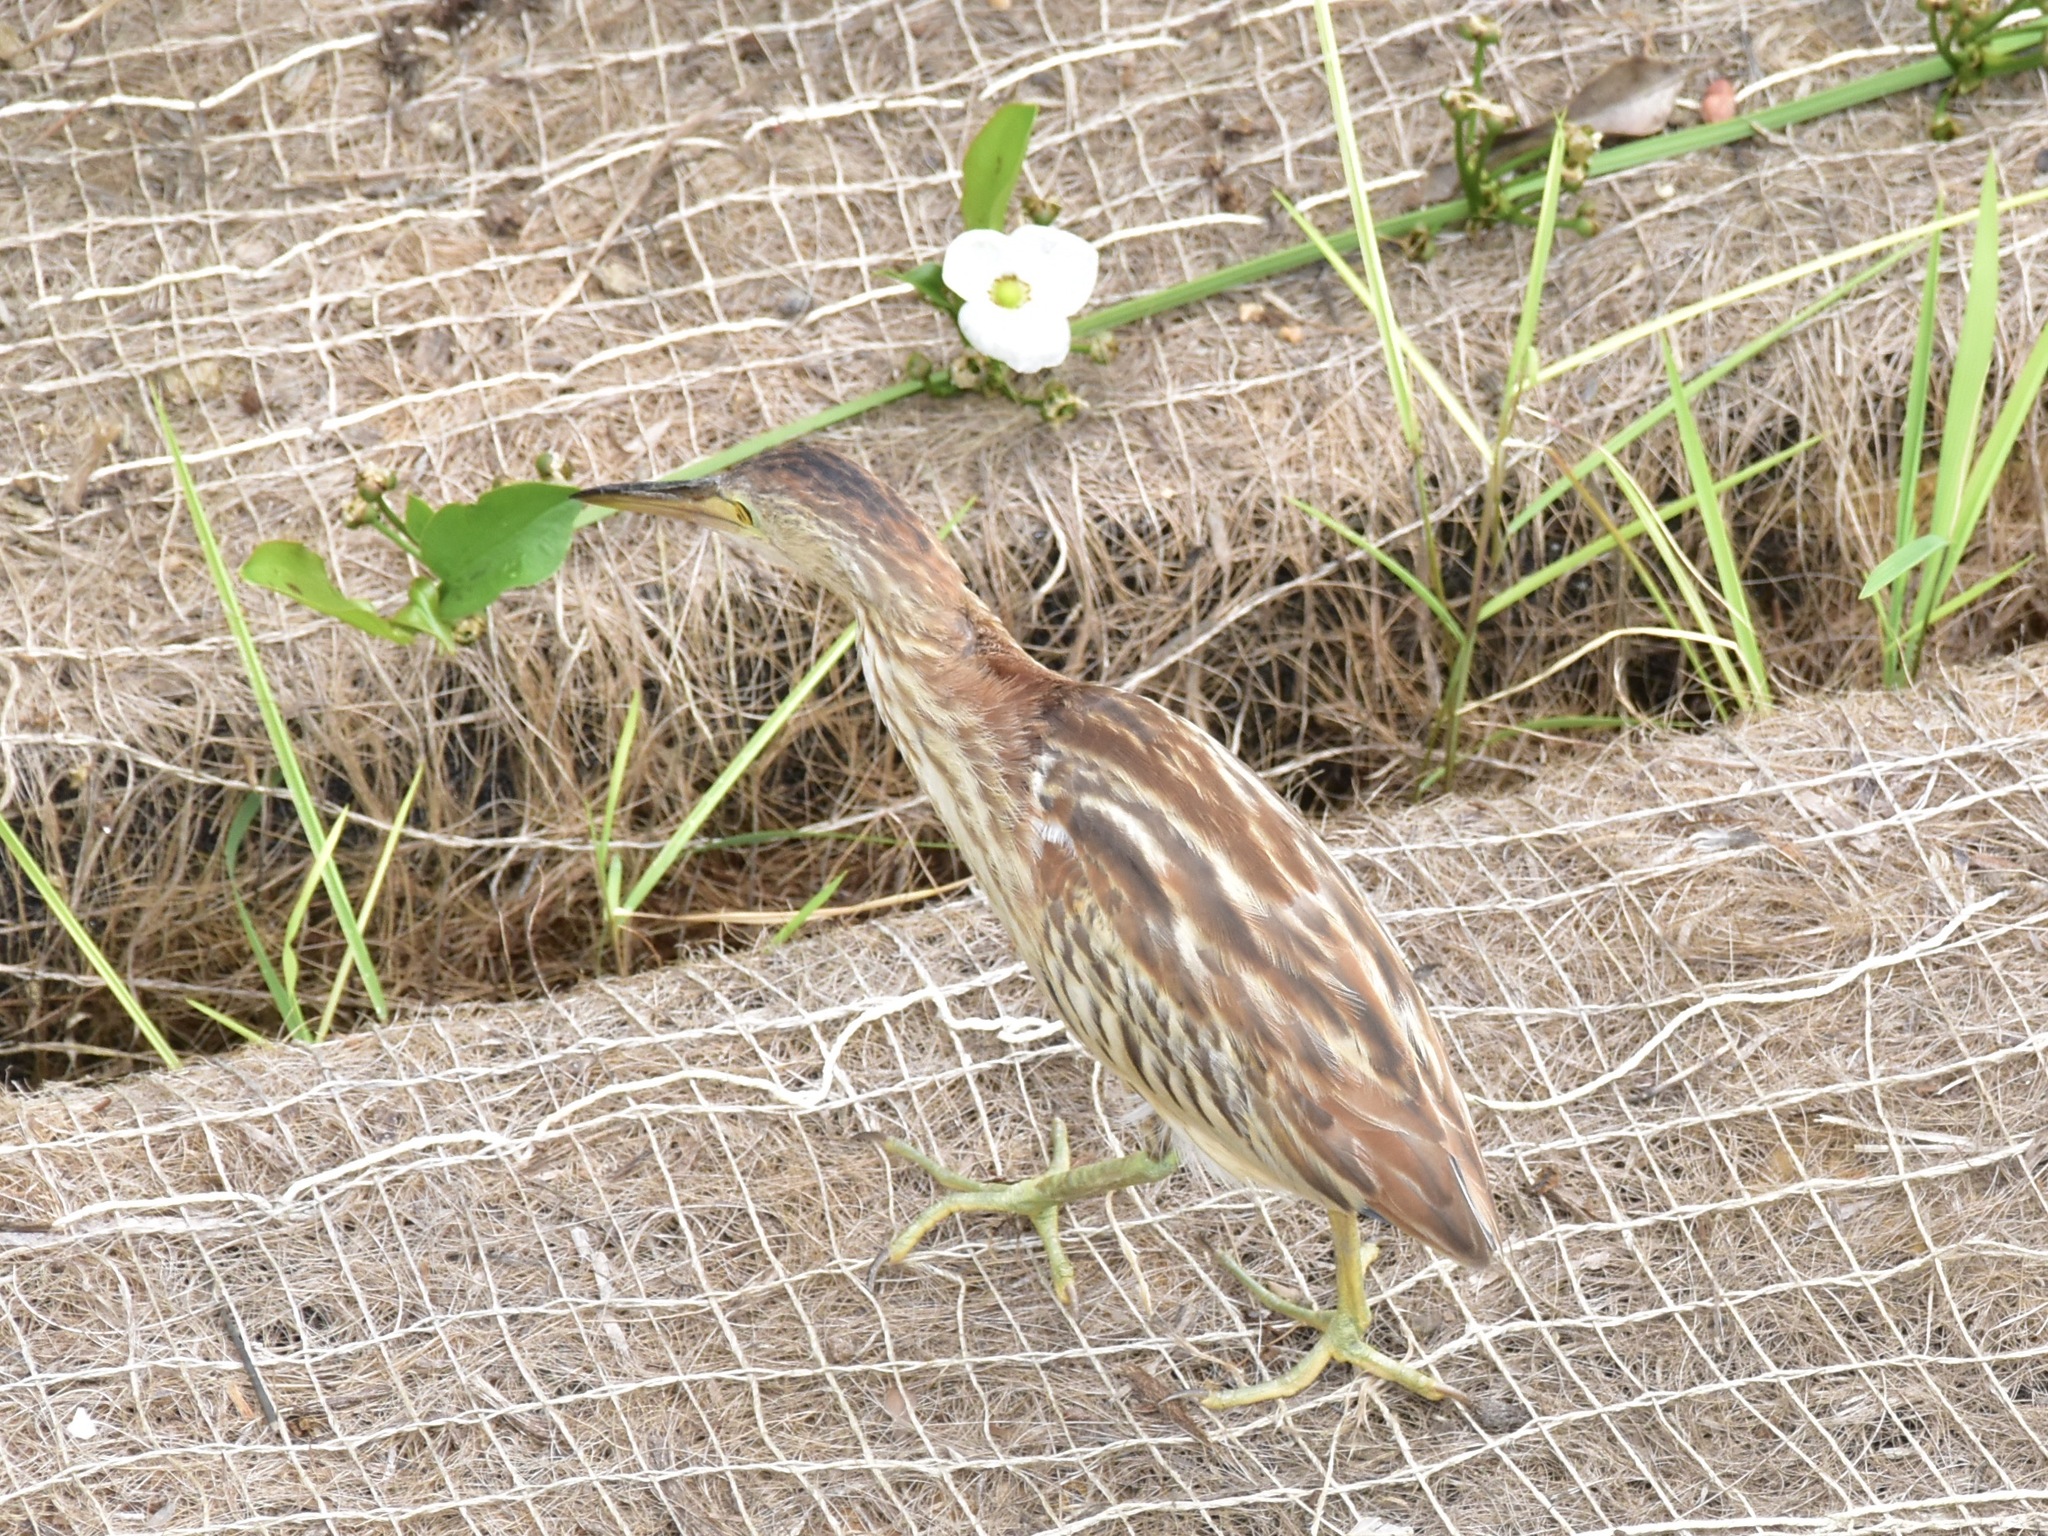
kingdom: Animalia
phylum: Chordata
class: Aves
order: Pelecaniformes
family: Ardeidae
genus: Ixobrychus
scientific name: Ixobrychus sinensis
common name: Yellow bittern
